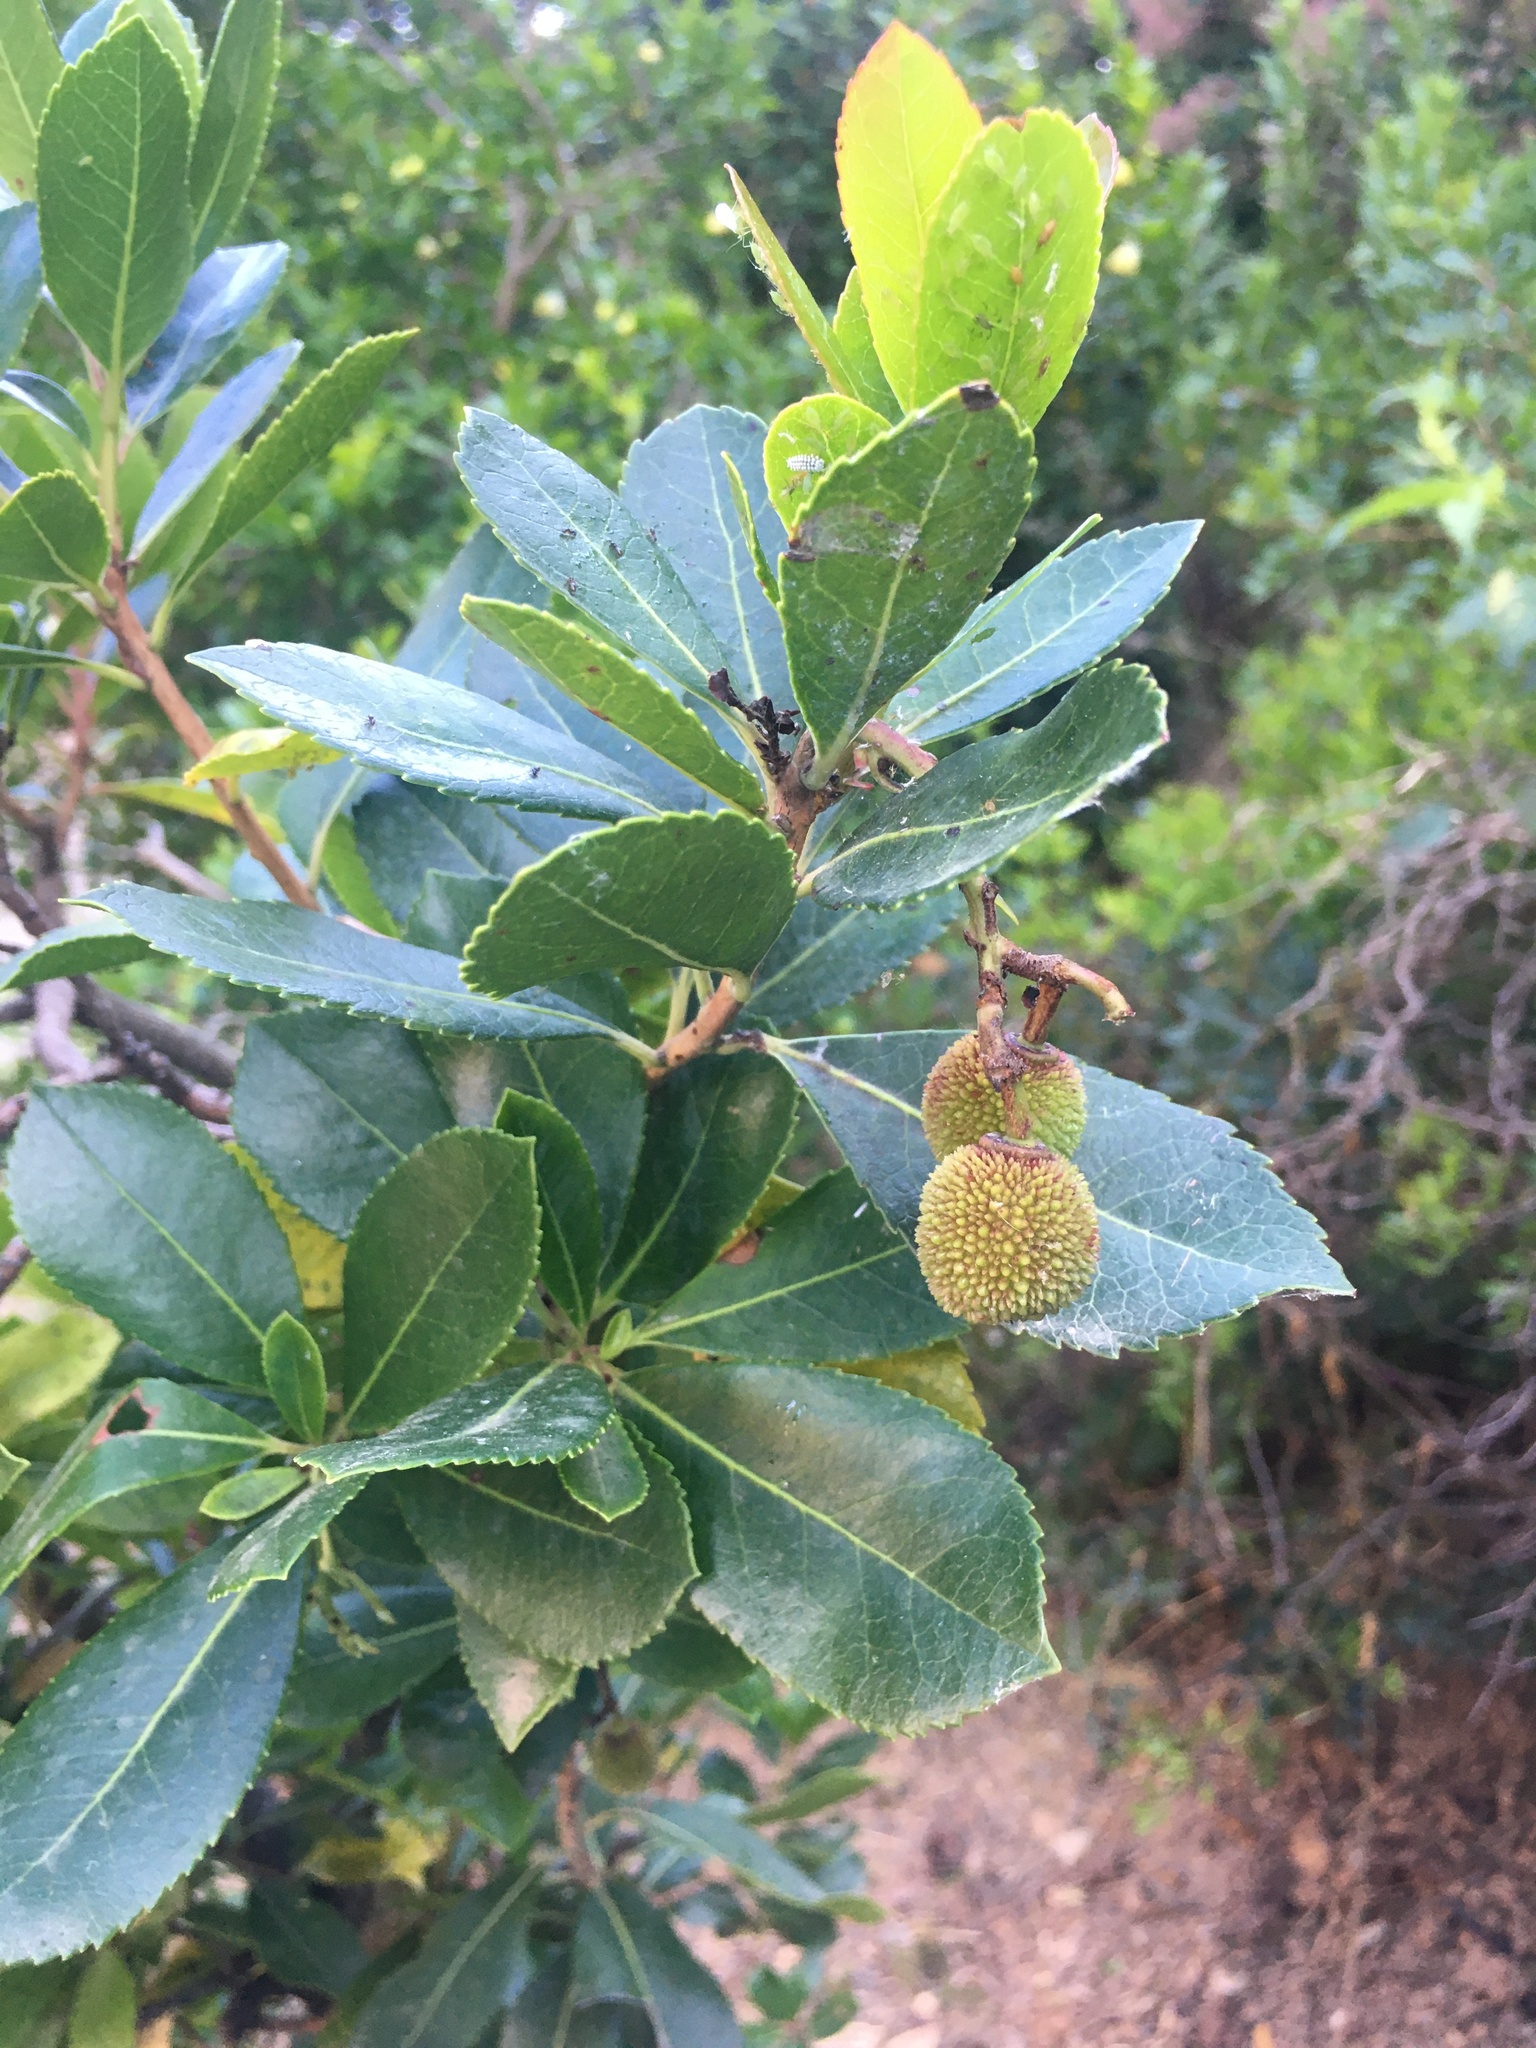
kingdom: Plantae
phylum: Tracheophyta
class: Magnoliopsida
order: Ericales
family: Ericaceae
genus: Arbutus
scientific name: Arbutus unedo
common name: Strawberry-tree
